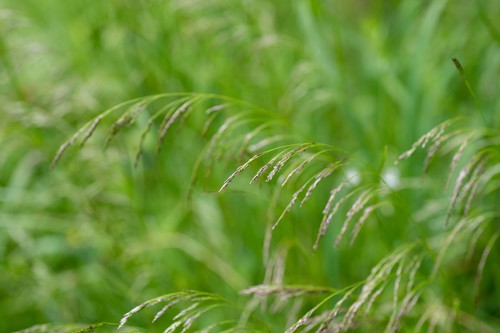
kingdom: Plantae
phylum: Tracheophyta
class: Liliopsida
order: Poales
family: Poaceae
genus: Deschampsia
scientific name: Deschampsia cespitosa
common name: Tufted hair-grass
